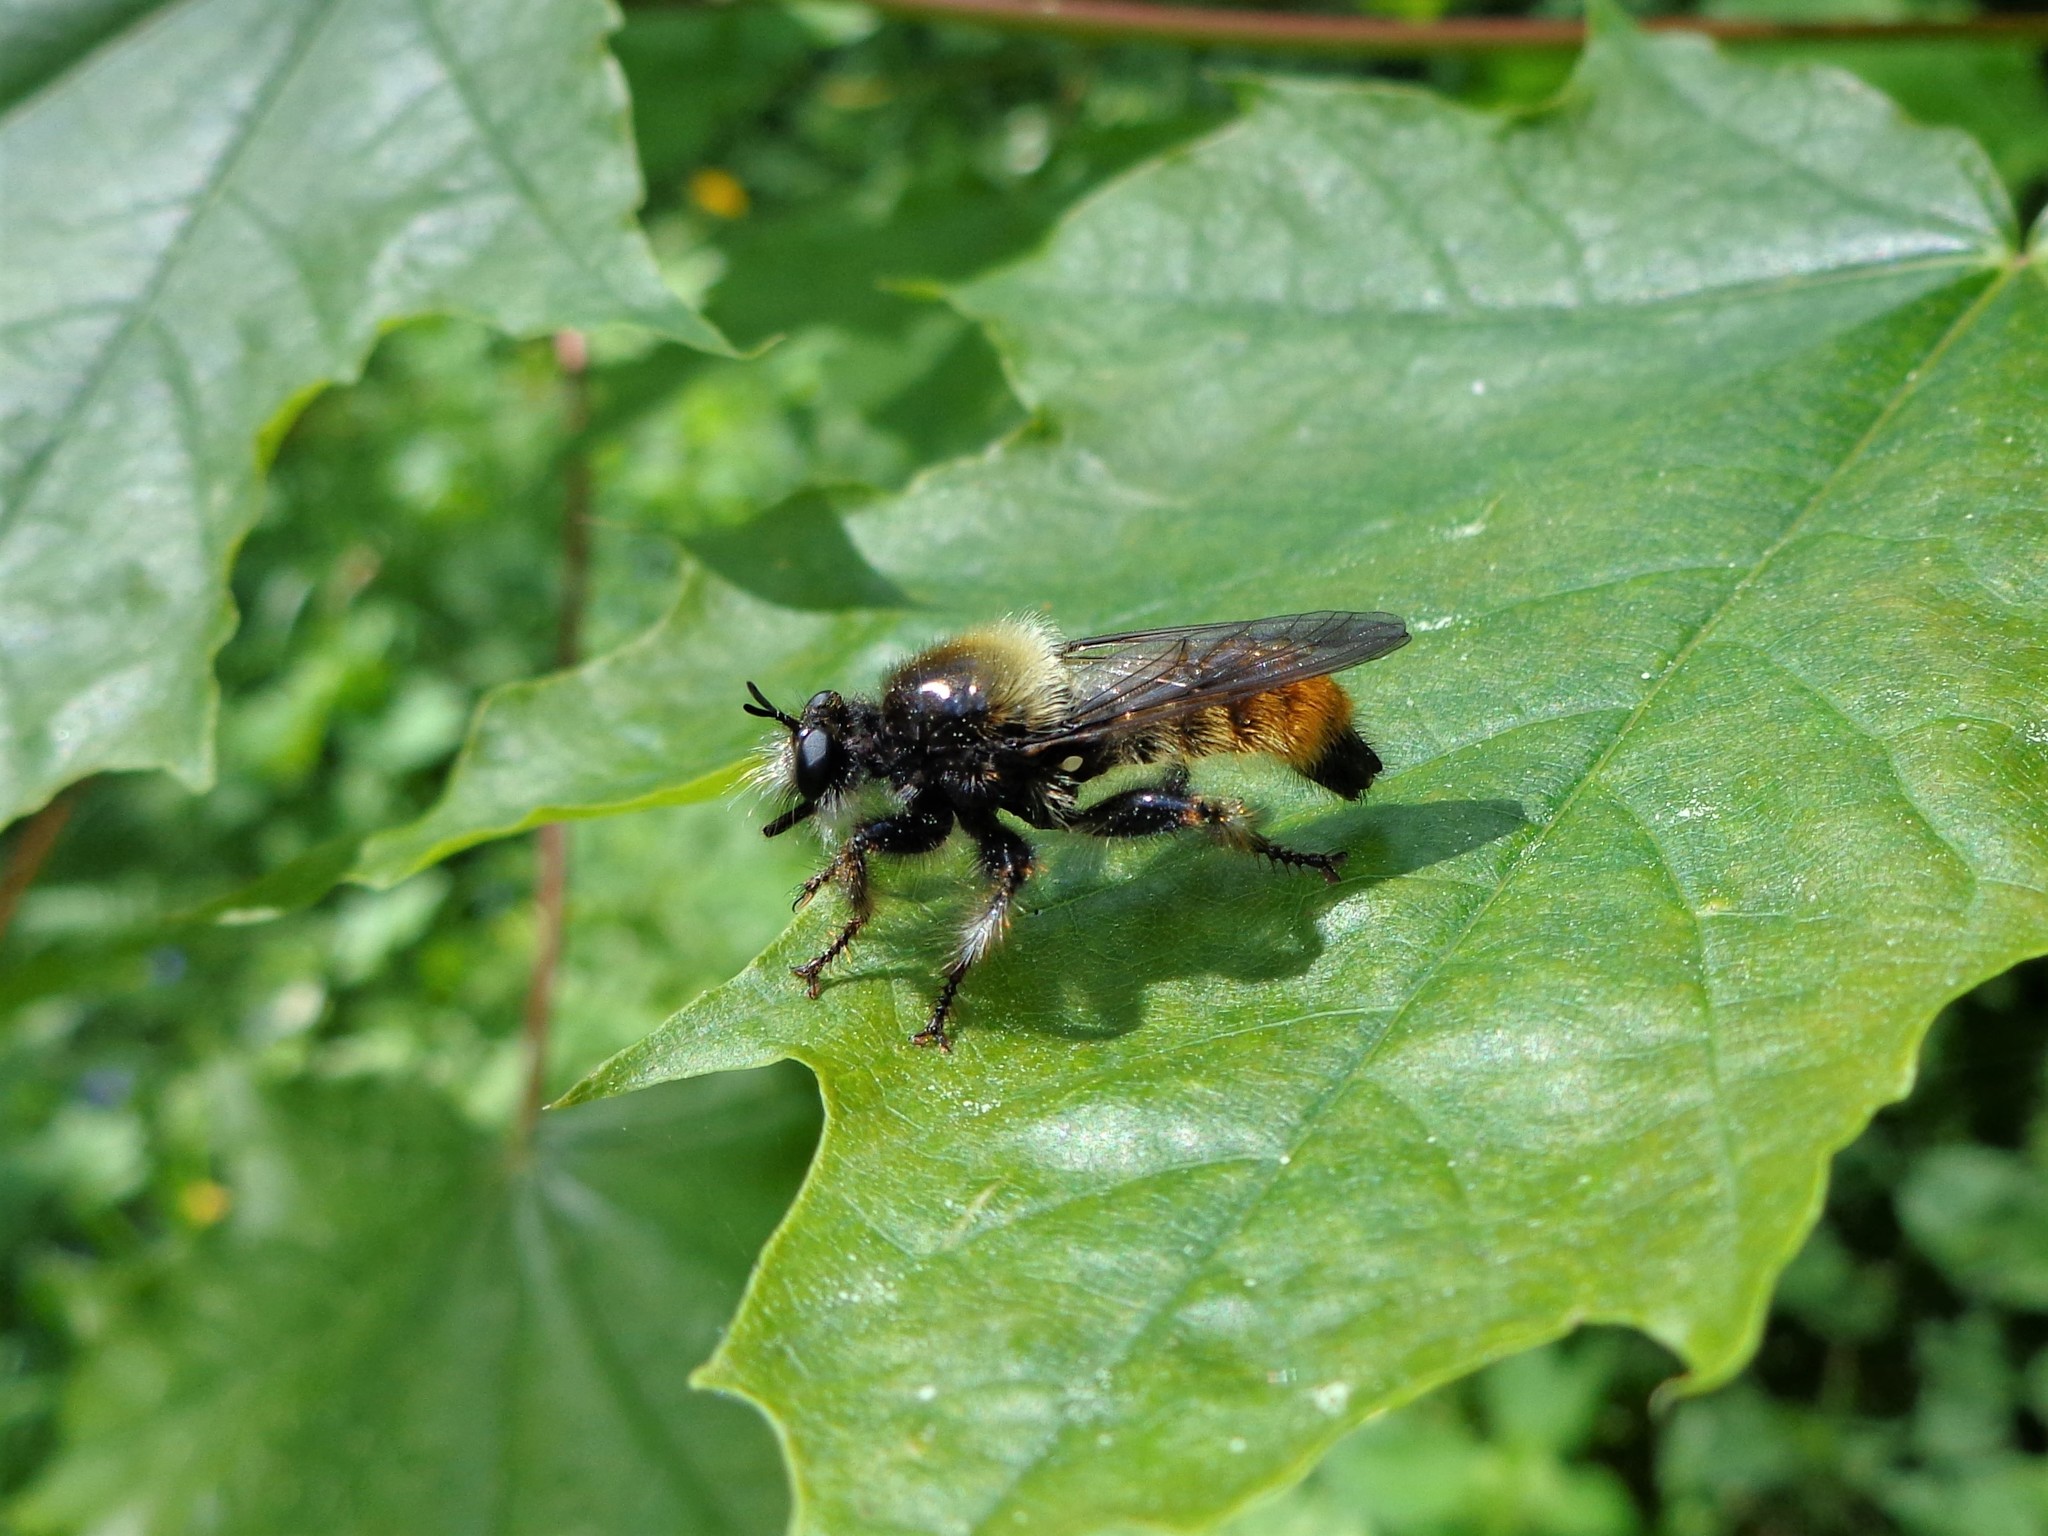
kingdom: Animalia
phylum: Arthropoda
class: Insecta
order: Diptera
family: Asilidae
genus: Laphria
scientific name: Laphria flava
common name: Bumblebee robberfly
